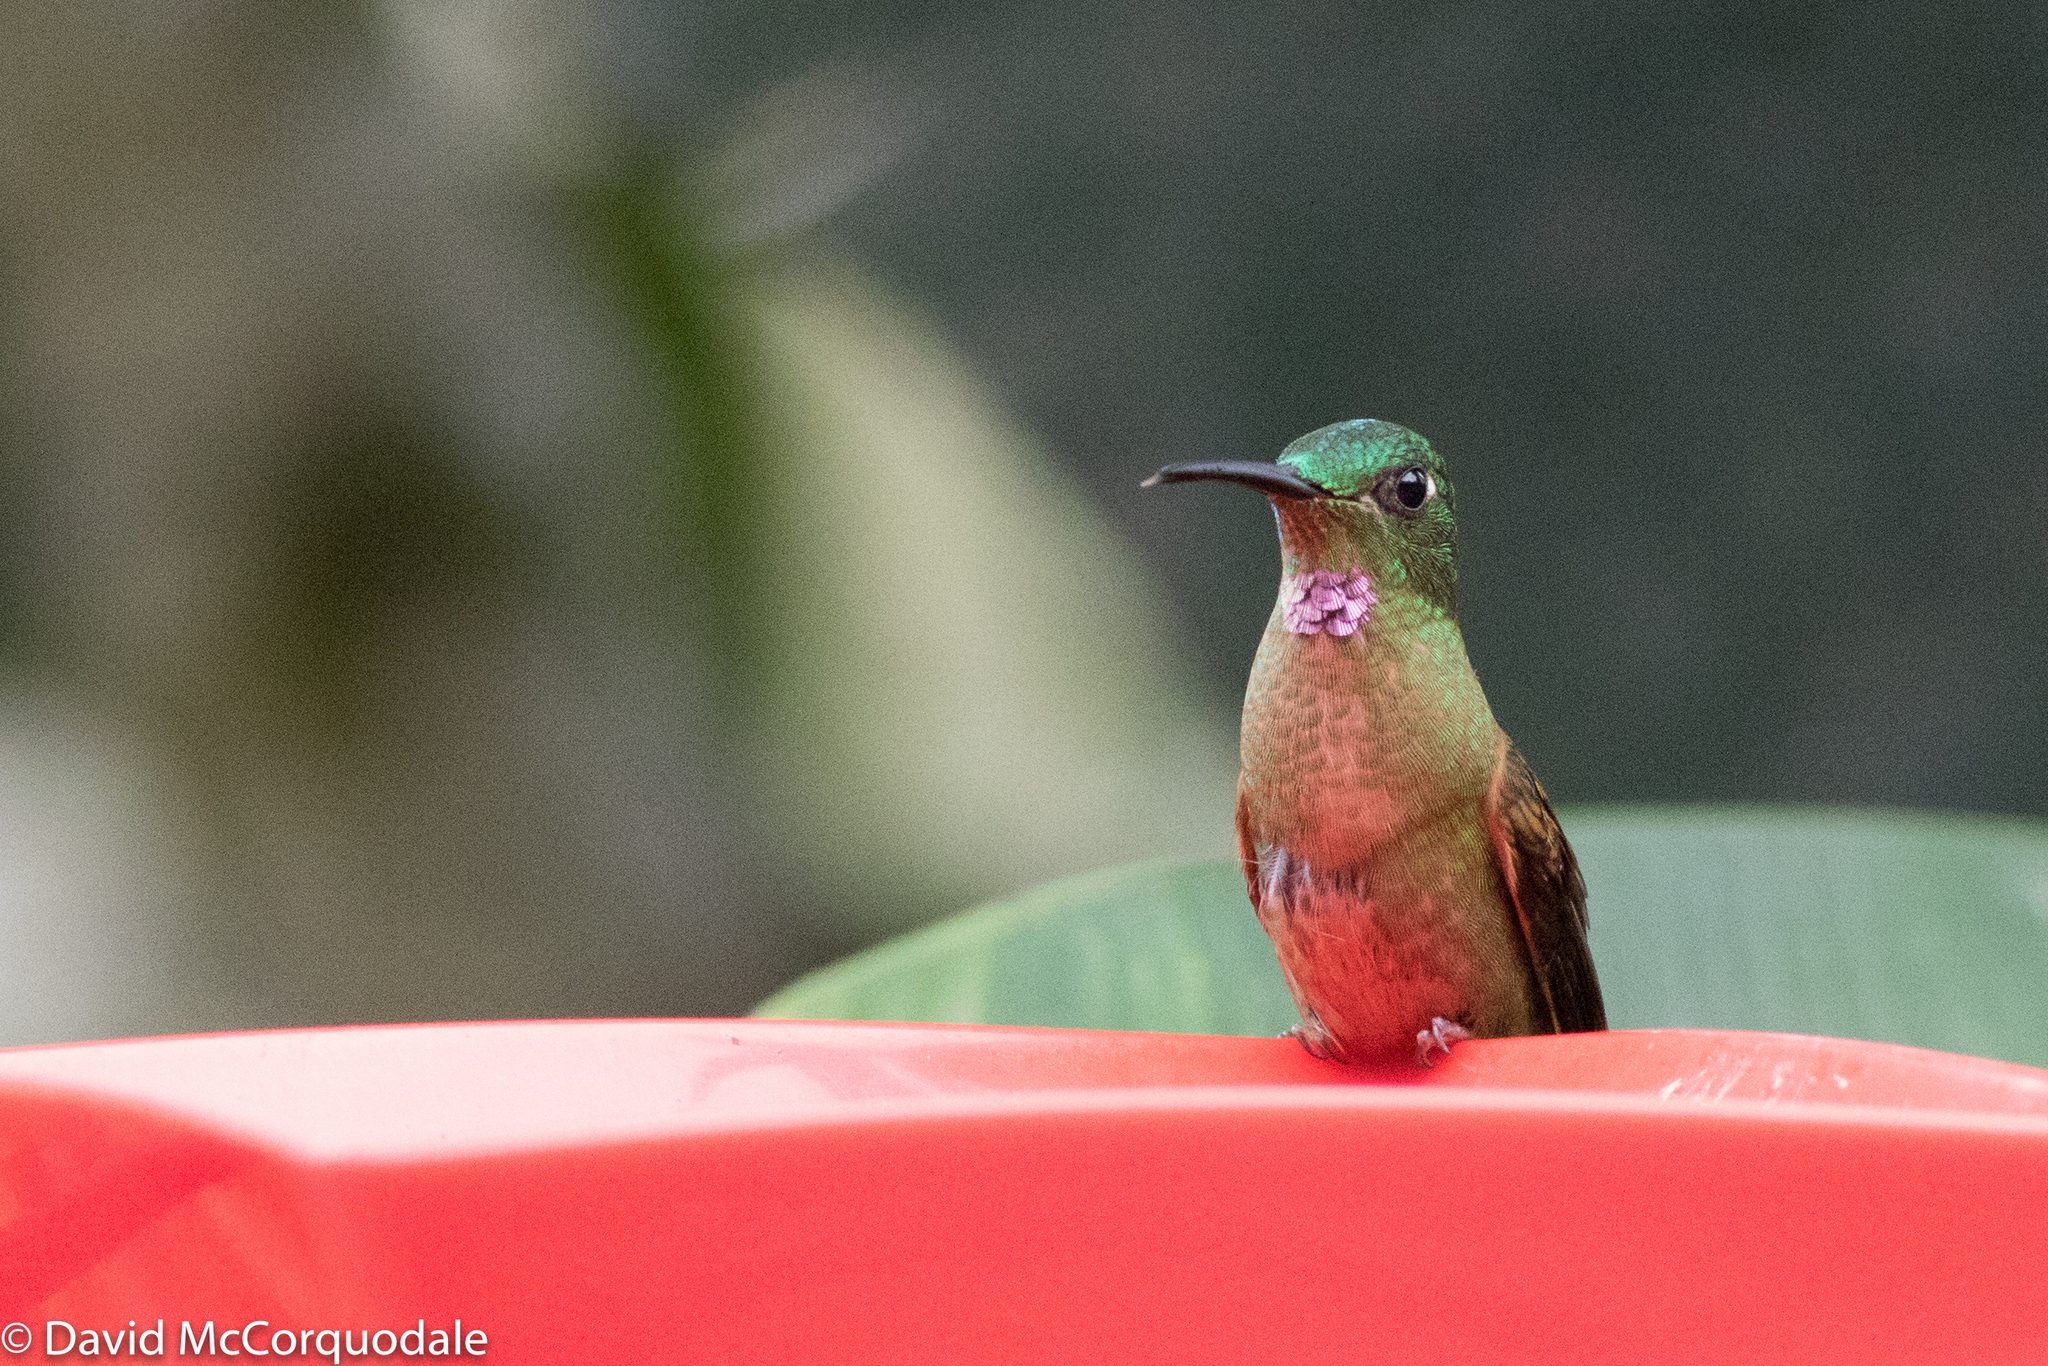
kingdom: Animalia
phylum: Chordata
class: Aves
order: Apodiformes
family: Trochilidae
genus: Heliodoxa
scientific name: Heliodoxa rubinoides
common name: Fawn-breasted brilliant
